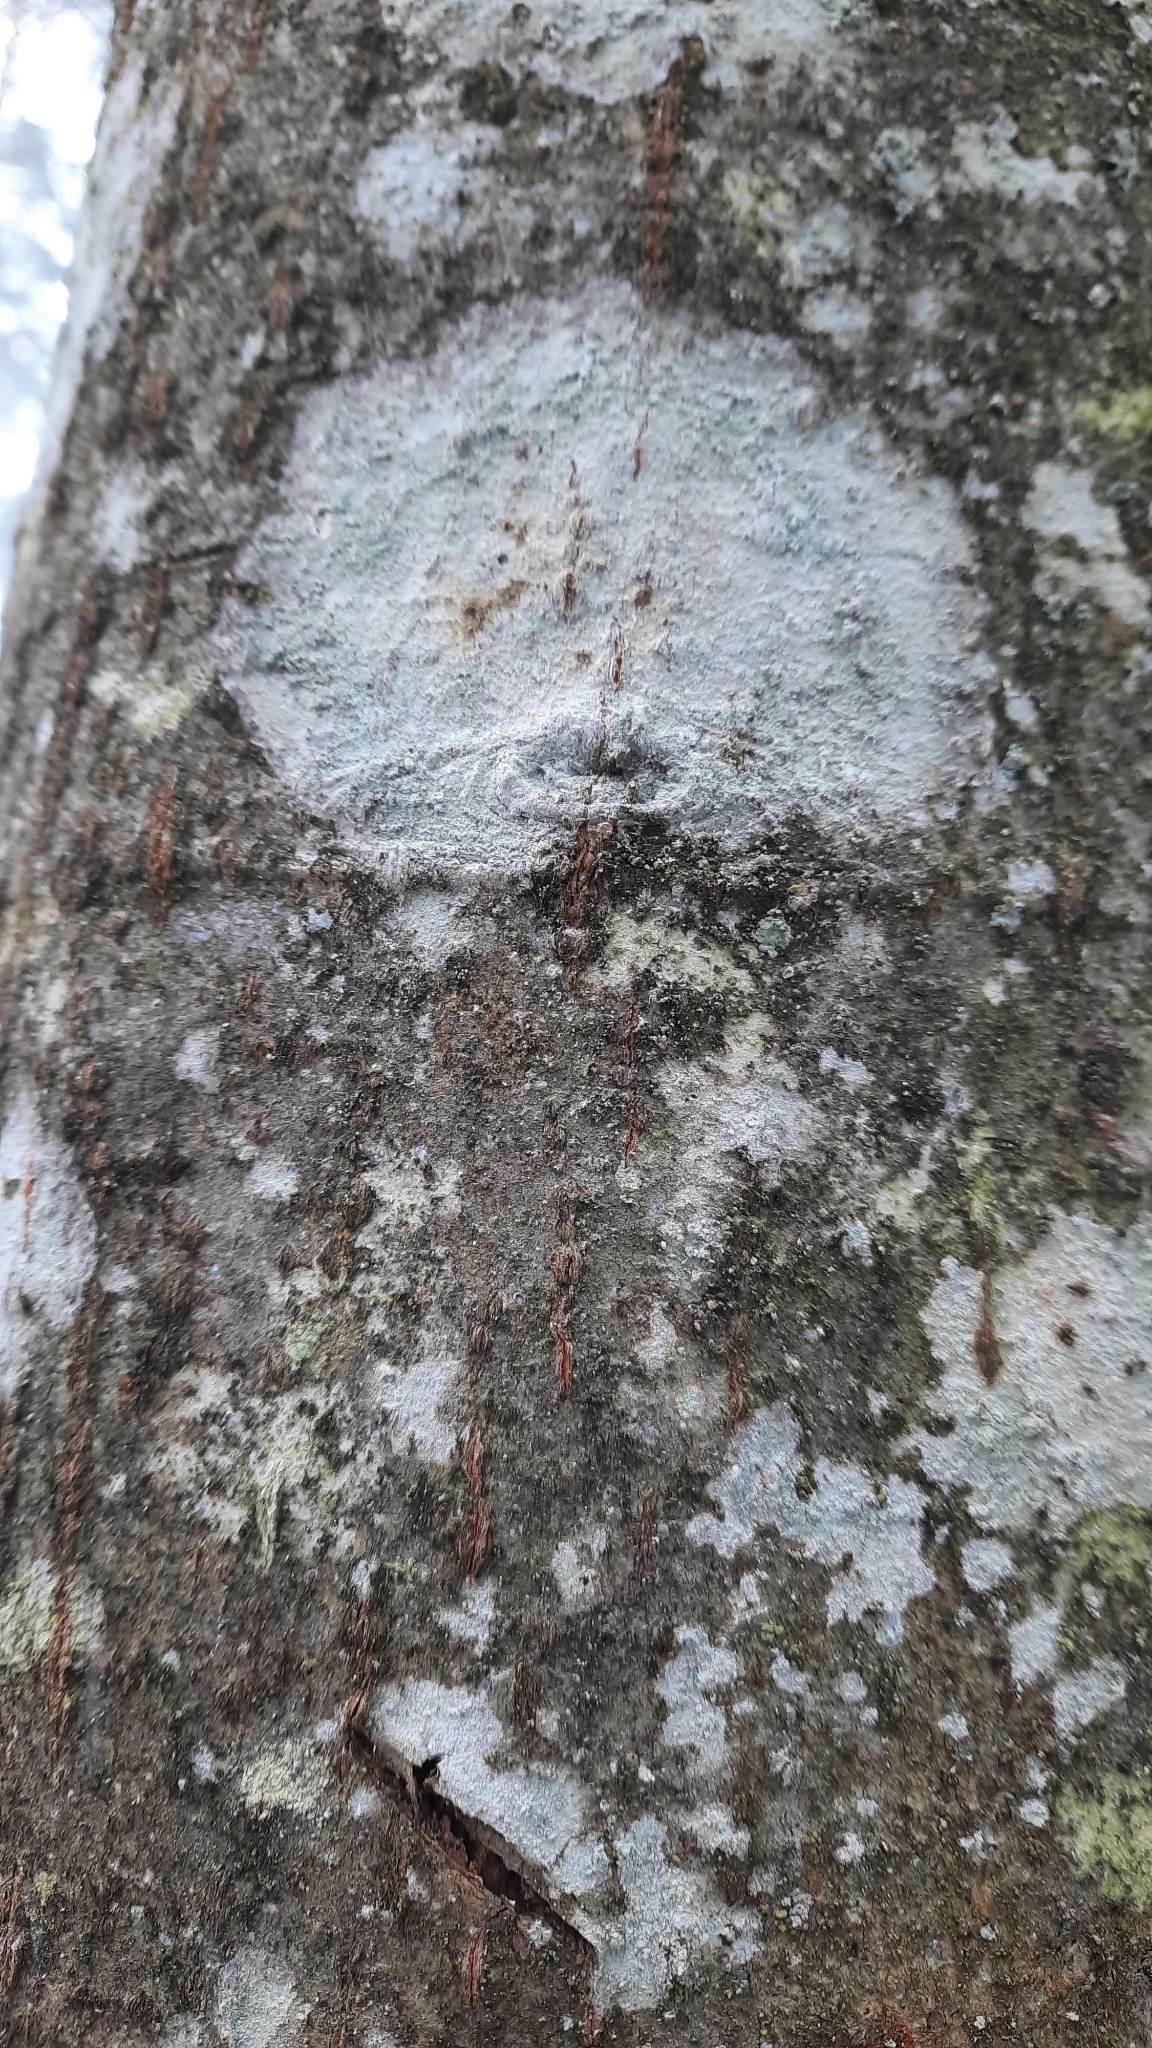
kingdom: Fungi
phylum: Ascomycota
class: Lecanoromycetes
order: Ostropales
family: Phlyctidaceae
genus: Phlyctis
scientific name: Phlyctis argena
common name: Whitewash lichen
